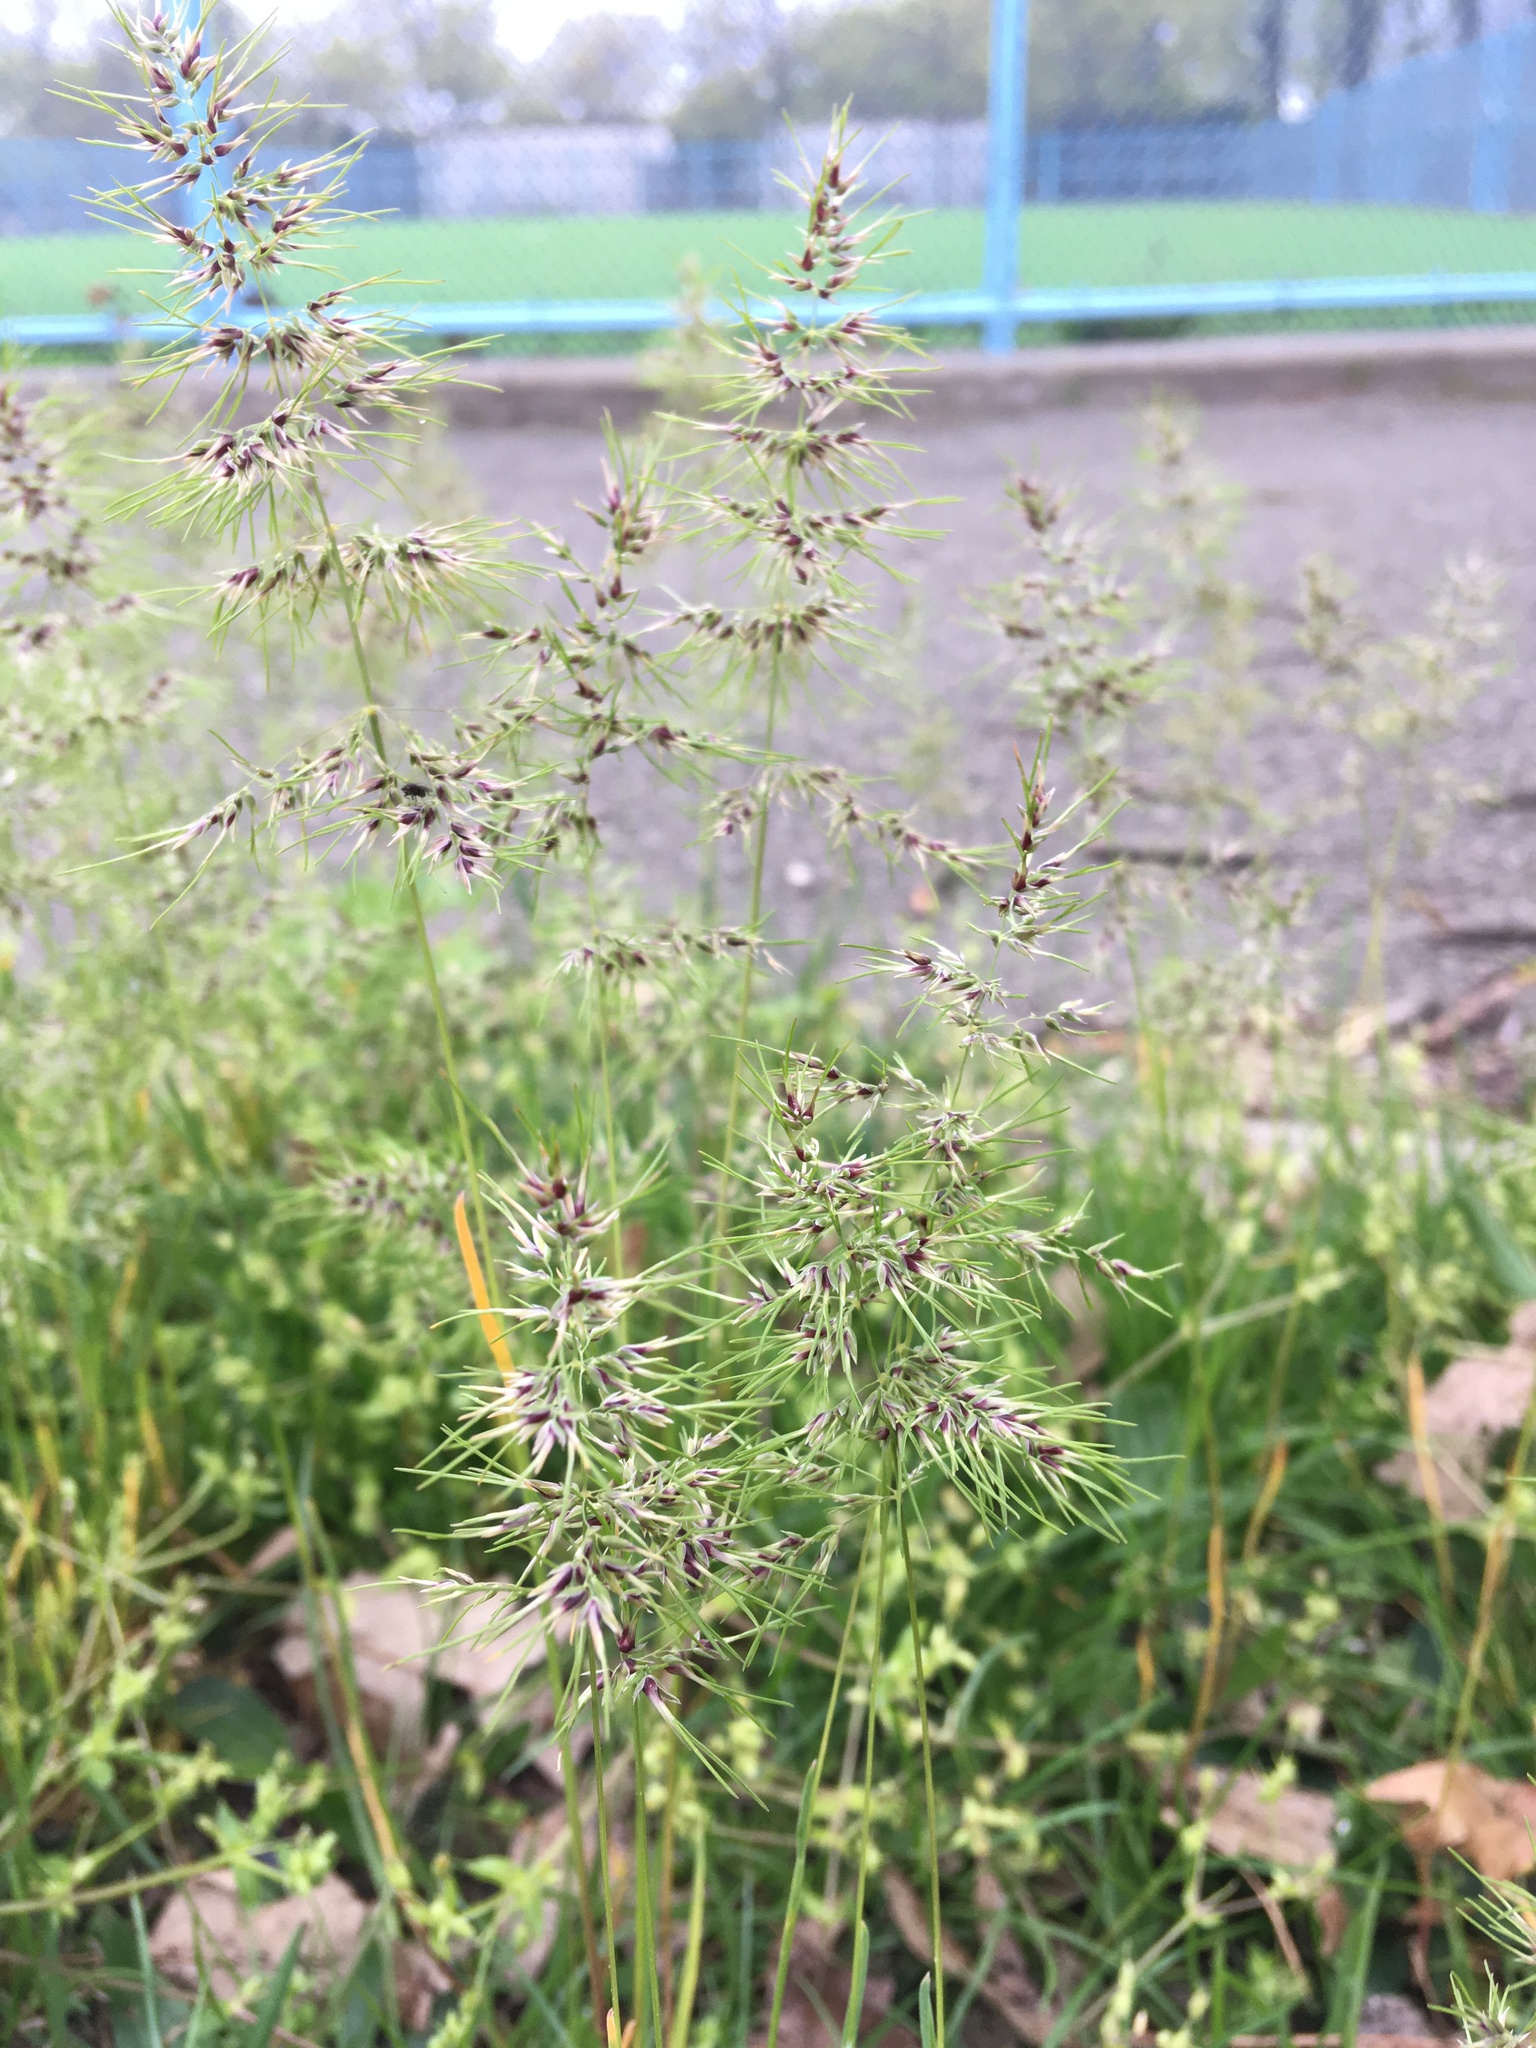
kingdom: Plantae
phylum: Tracheophyta
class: Liliopsida
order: Poales
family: Poaceae
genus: Poa
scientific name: Poa bulbosa
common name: Bulbous bluegrass
